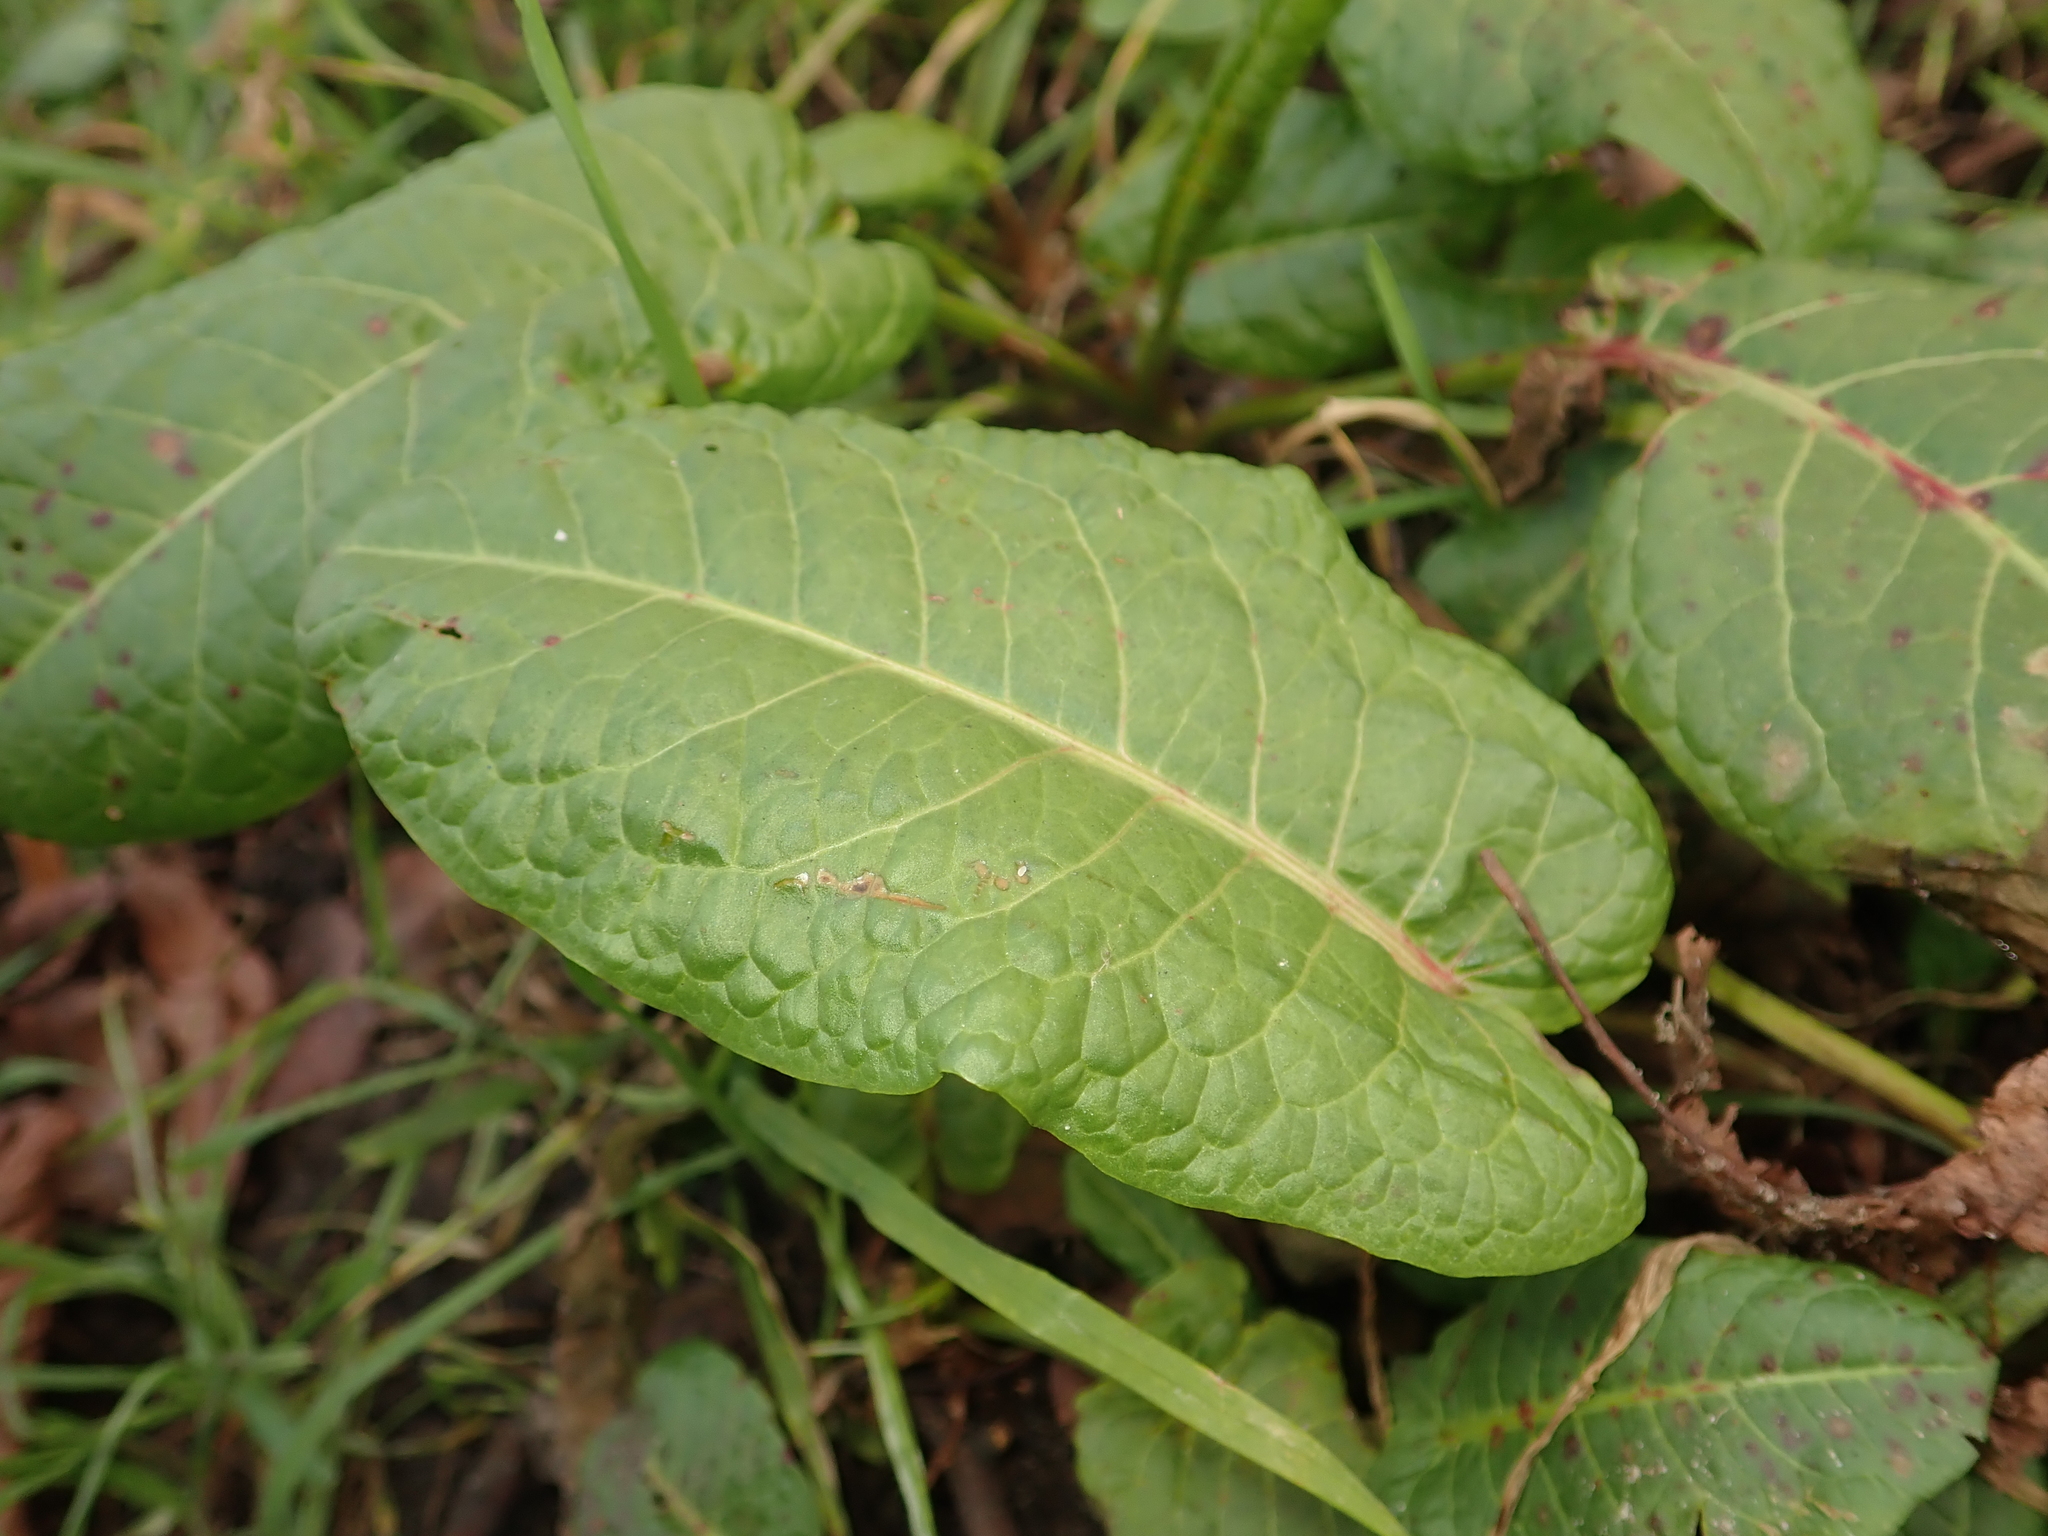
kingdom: Plantae
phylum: Tracheophyta
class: Magnoliopsida
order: Caryophyllales
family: Polygonaceae
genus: Rumex
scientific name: Rumex obtusifolius
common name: Bitter dock
